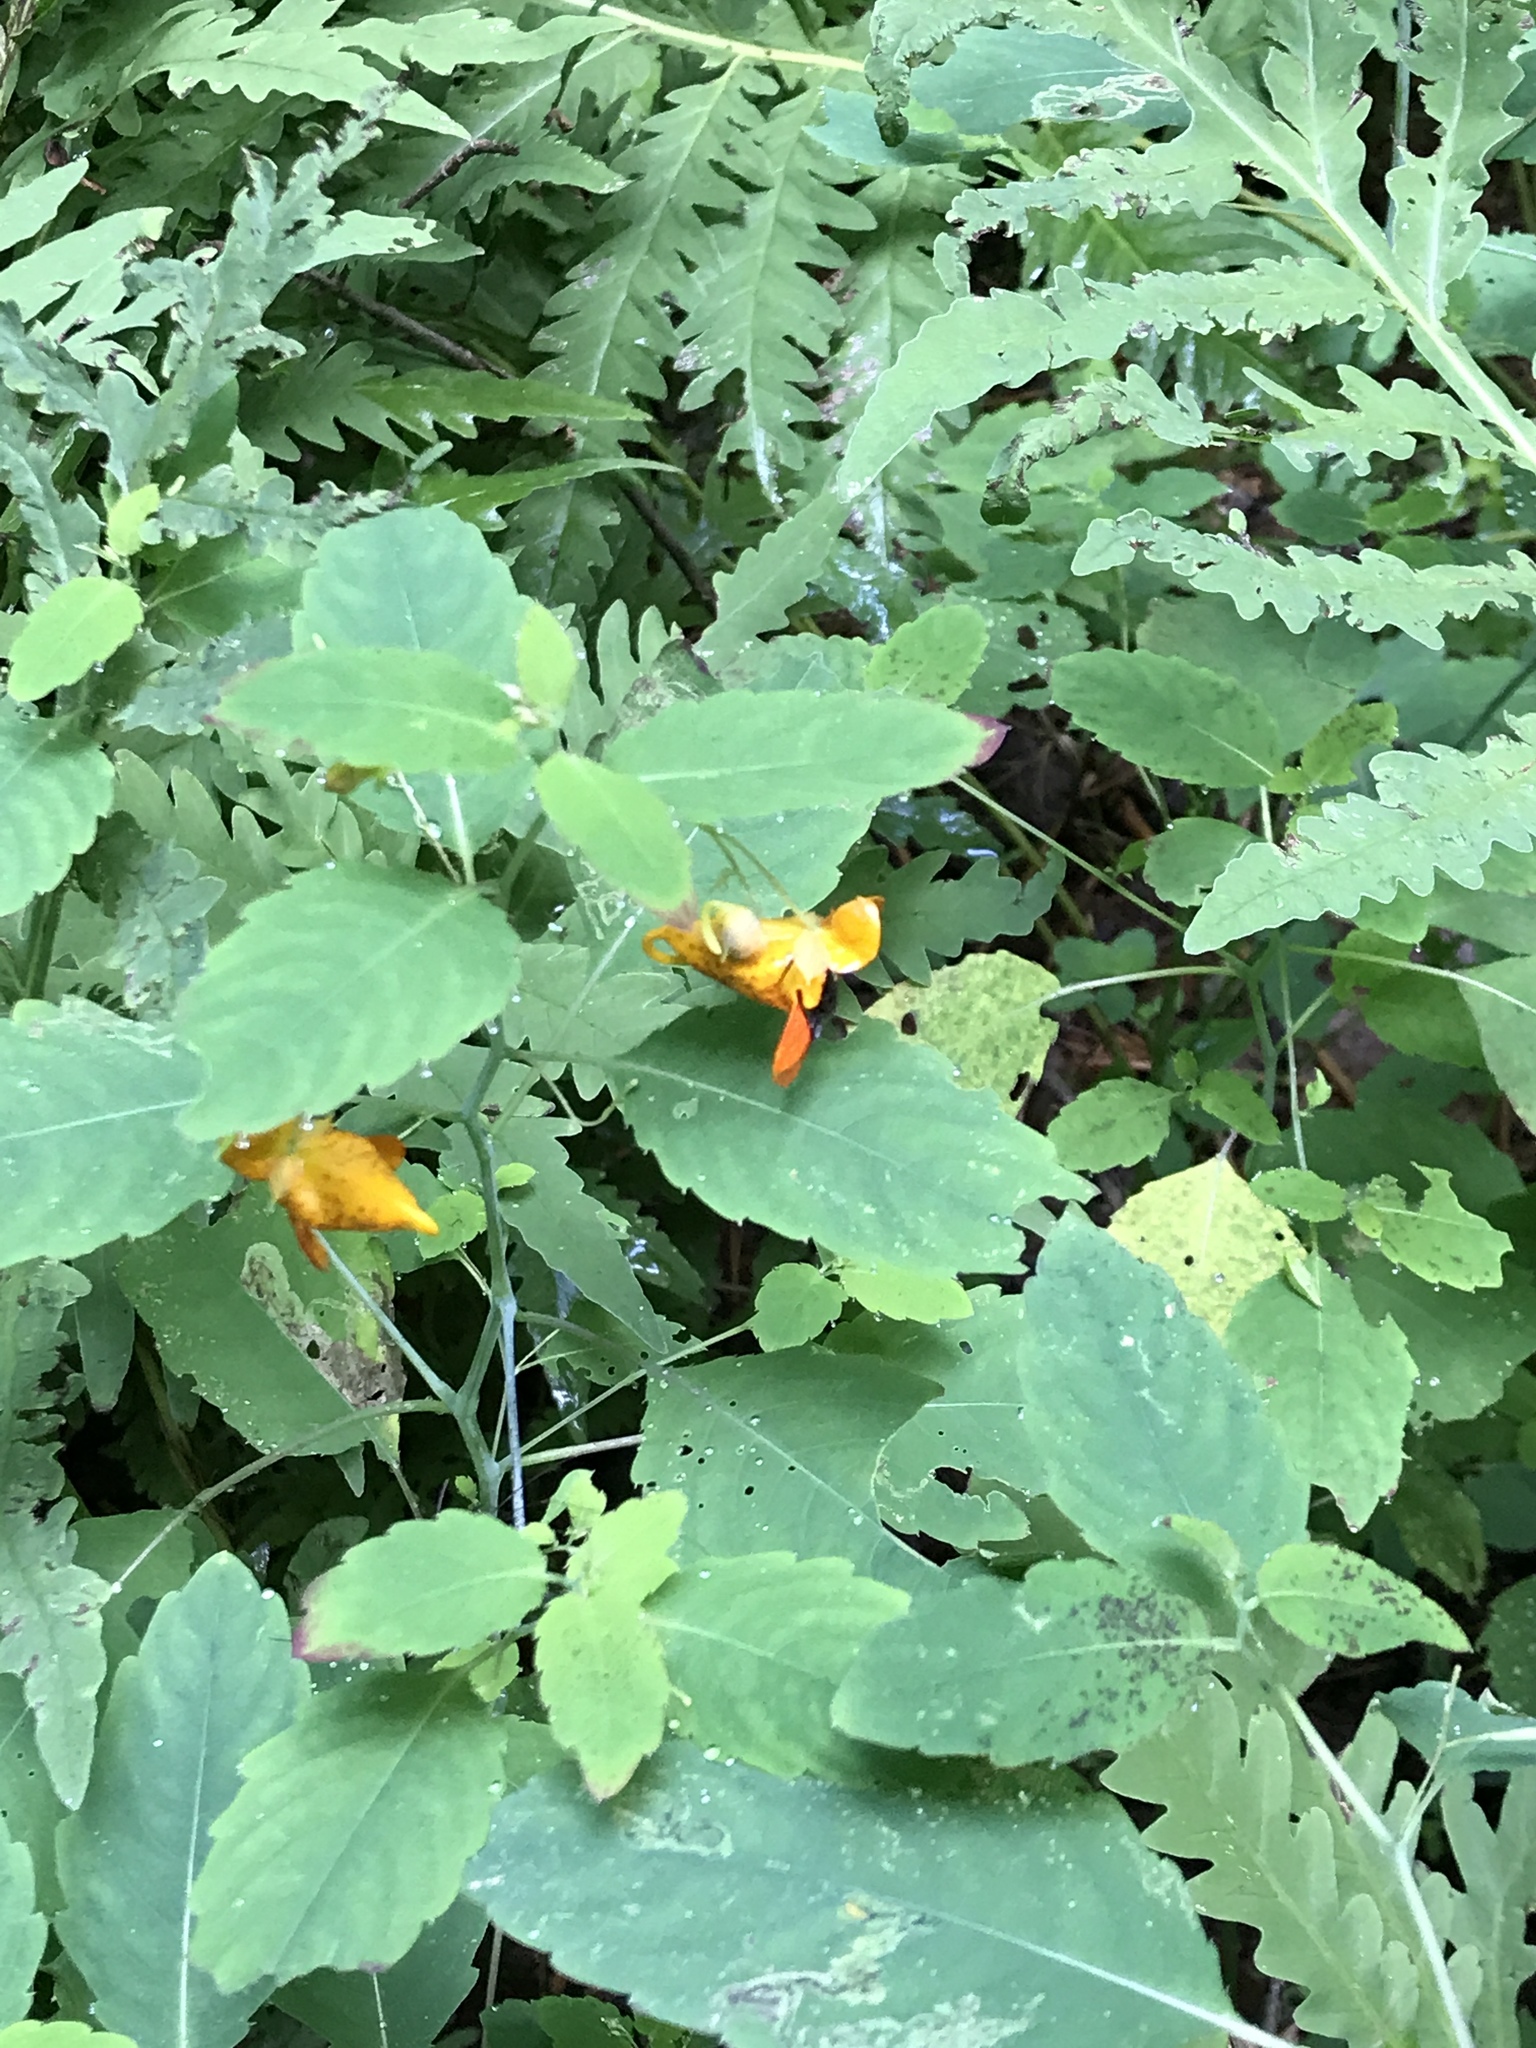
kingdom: Plantae
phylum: Tracheophyta
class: Magnoliopsida
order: Ericales
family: Balsaminaceae
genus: Impatiens
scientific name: Impatiens capensis
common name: Orange balsam
